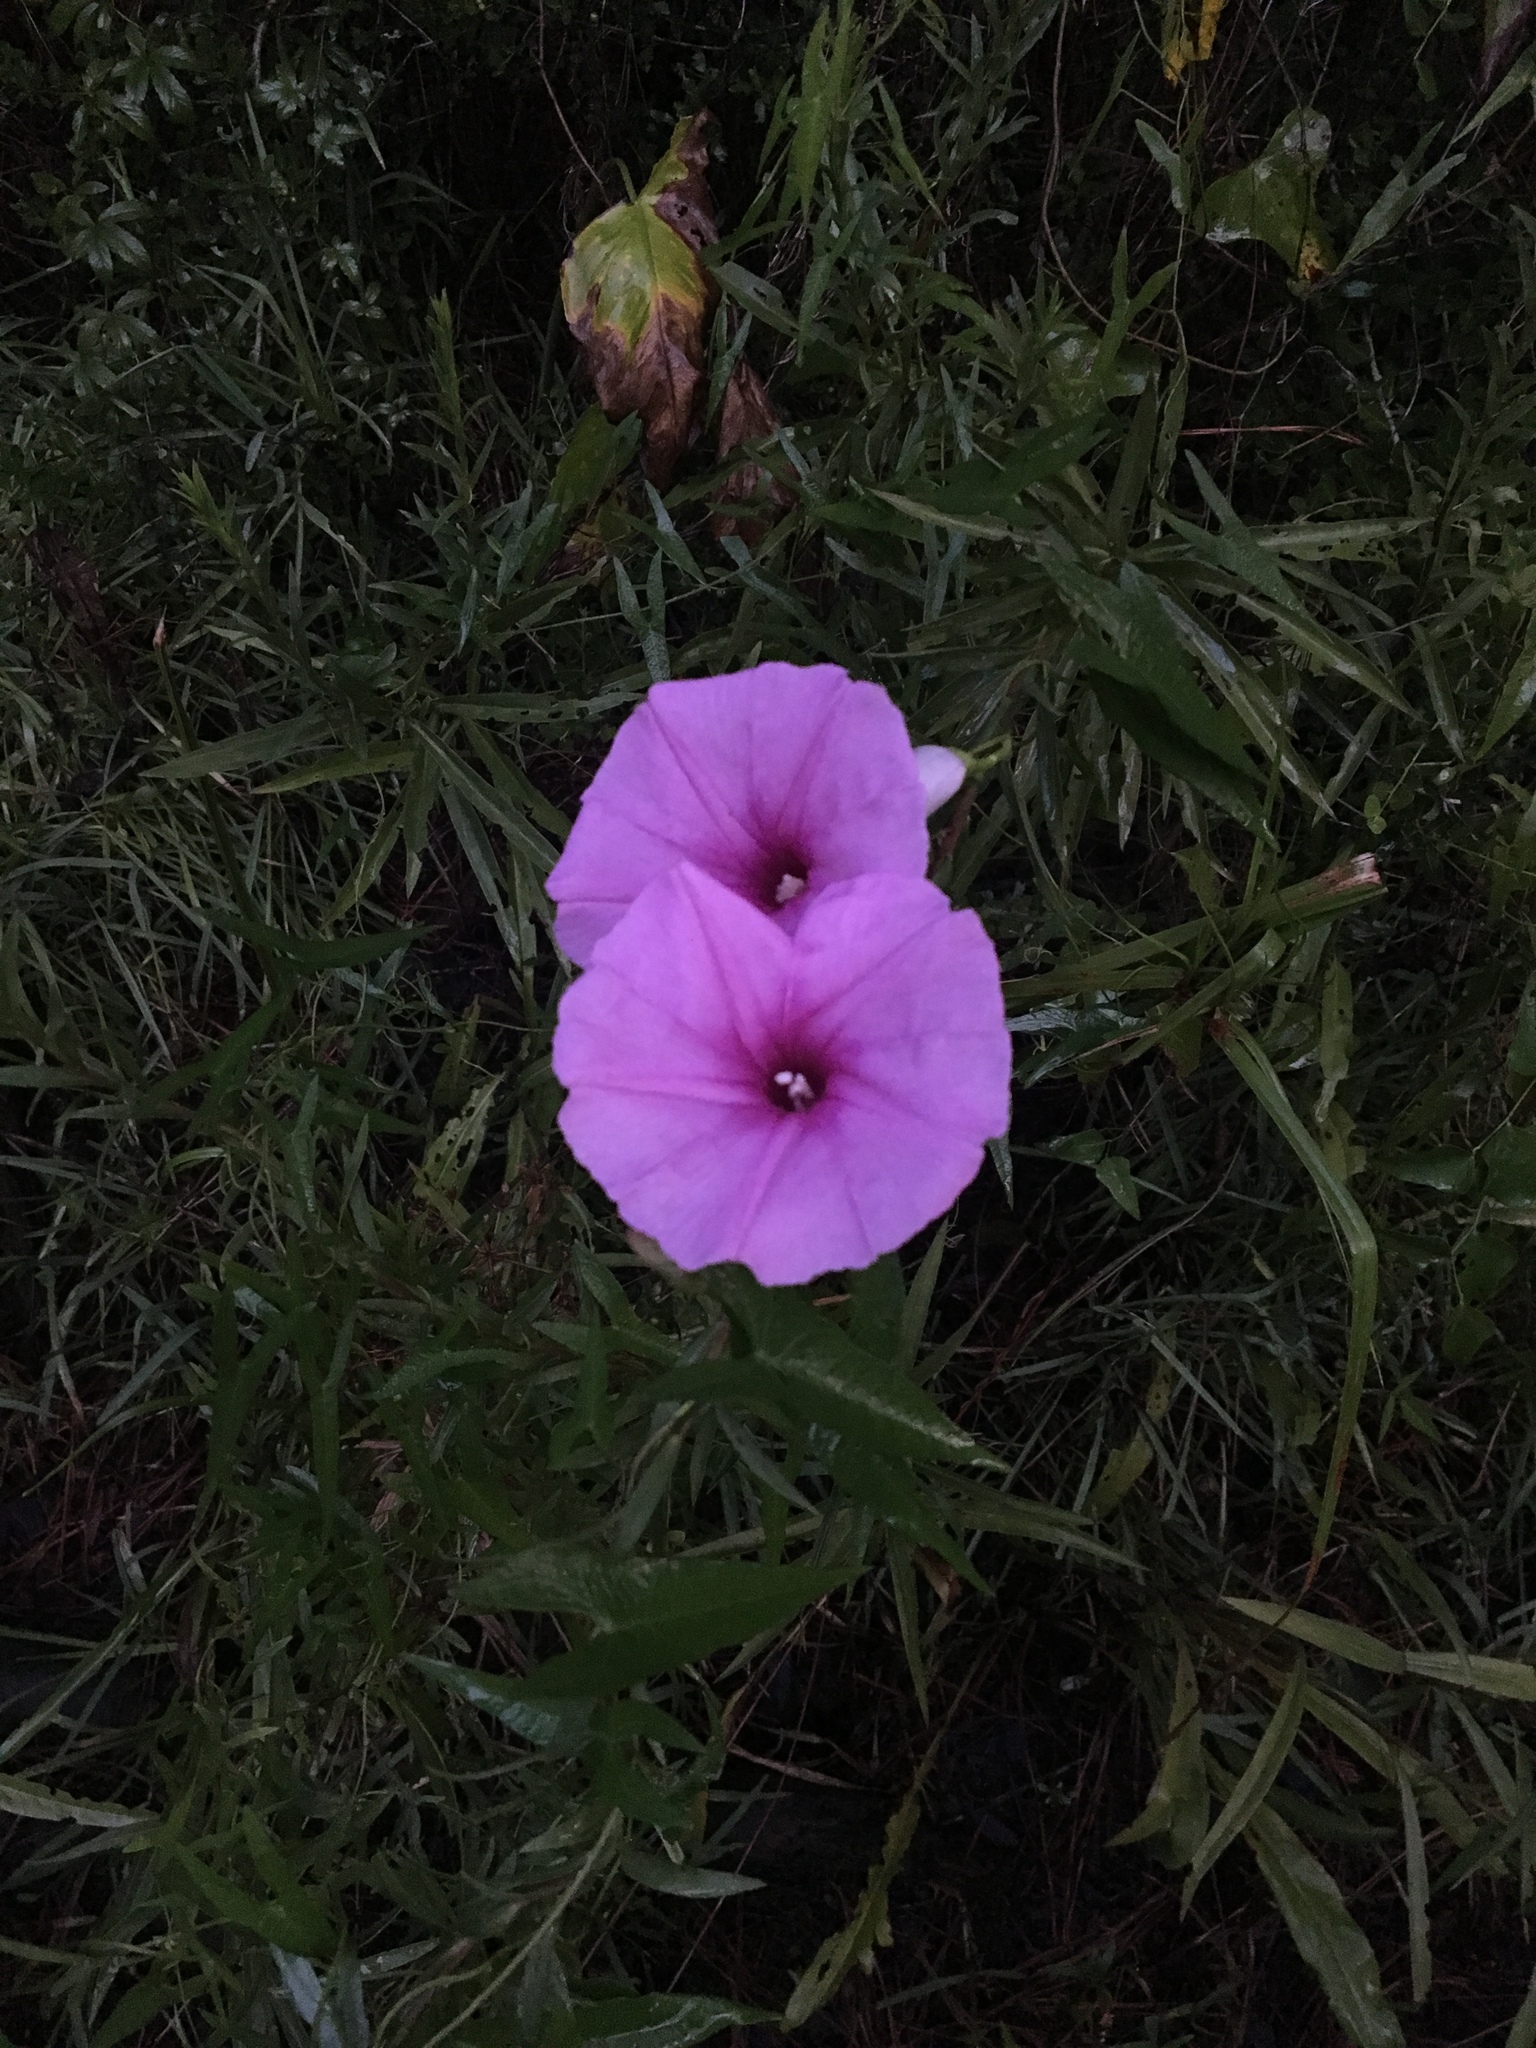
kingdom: Plantae
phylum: Tracheophyta
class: Magnoliopsida
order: Solanales
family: Convolvulaceae
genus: Ipomoea
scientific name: Ipomoea sagittata
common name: Saltmarsh morning glory
